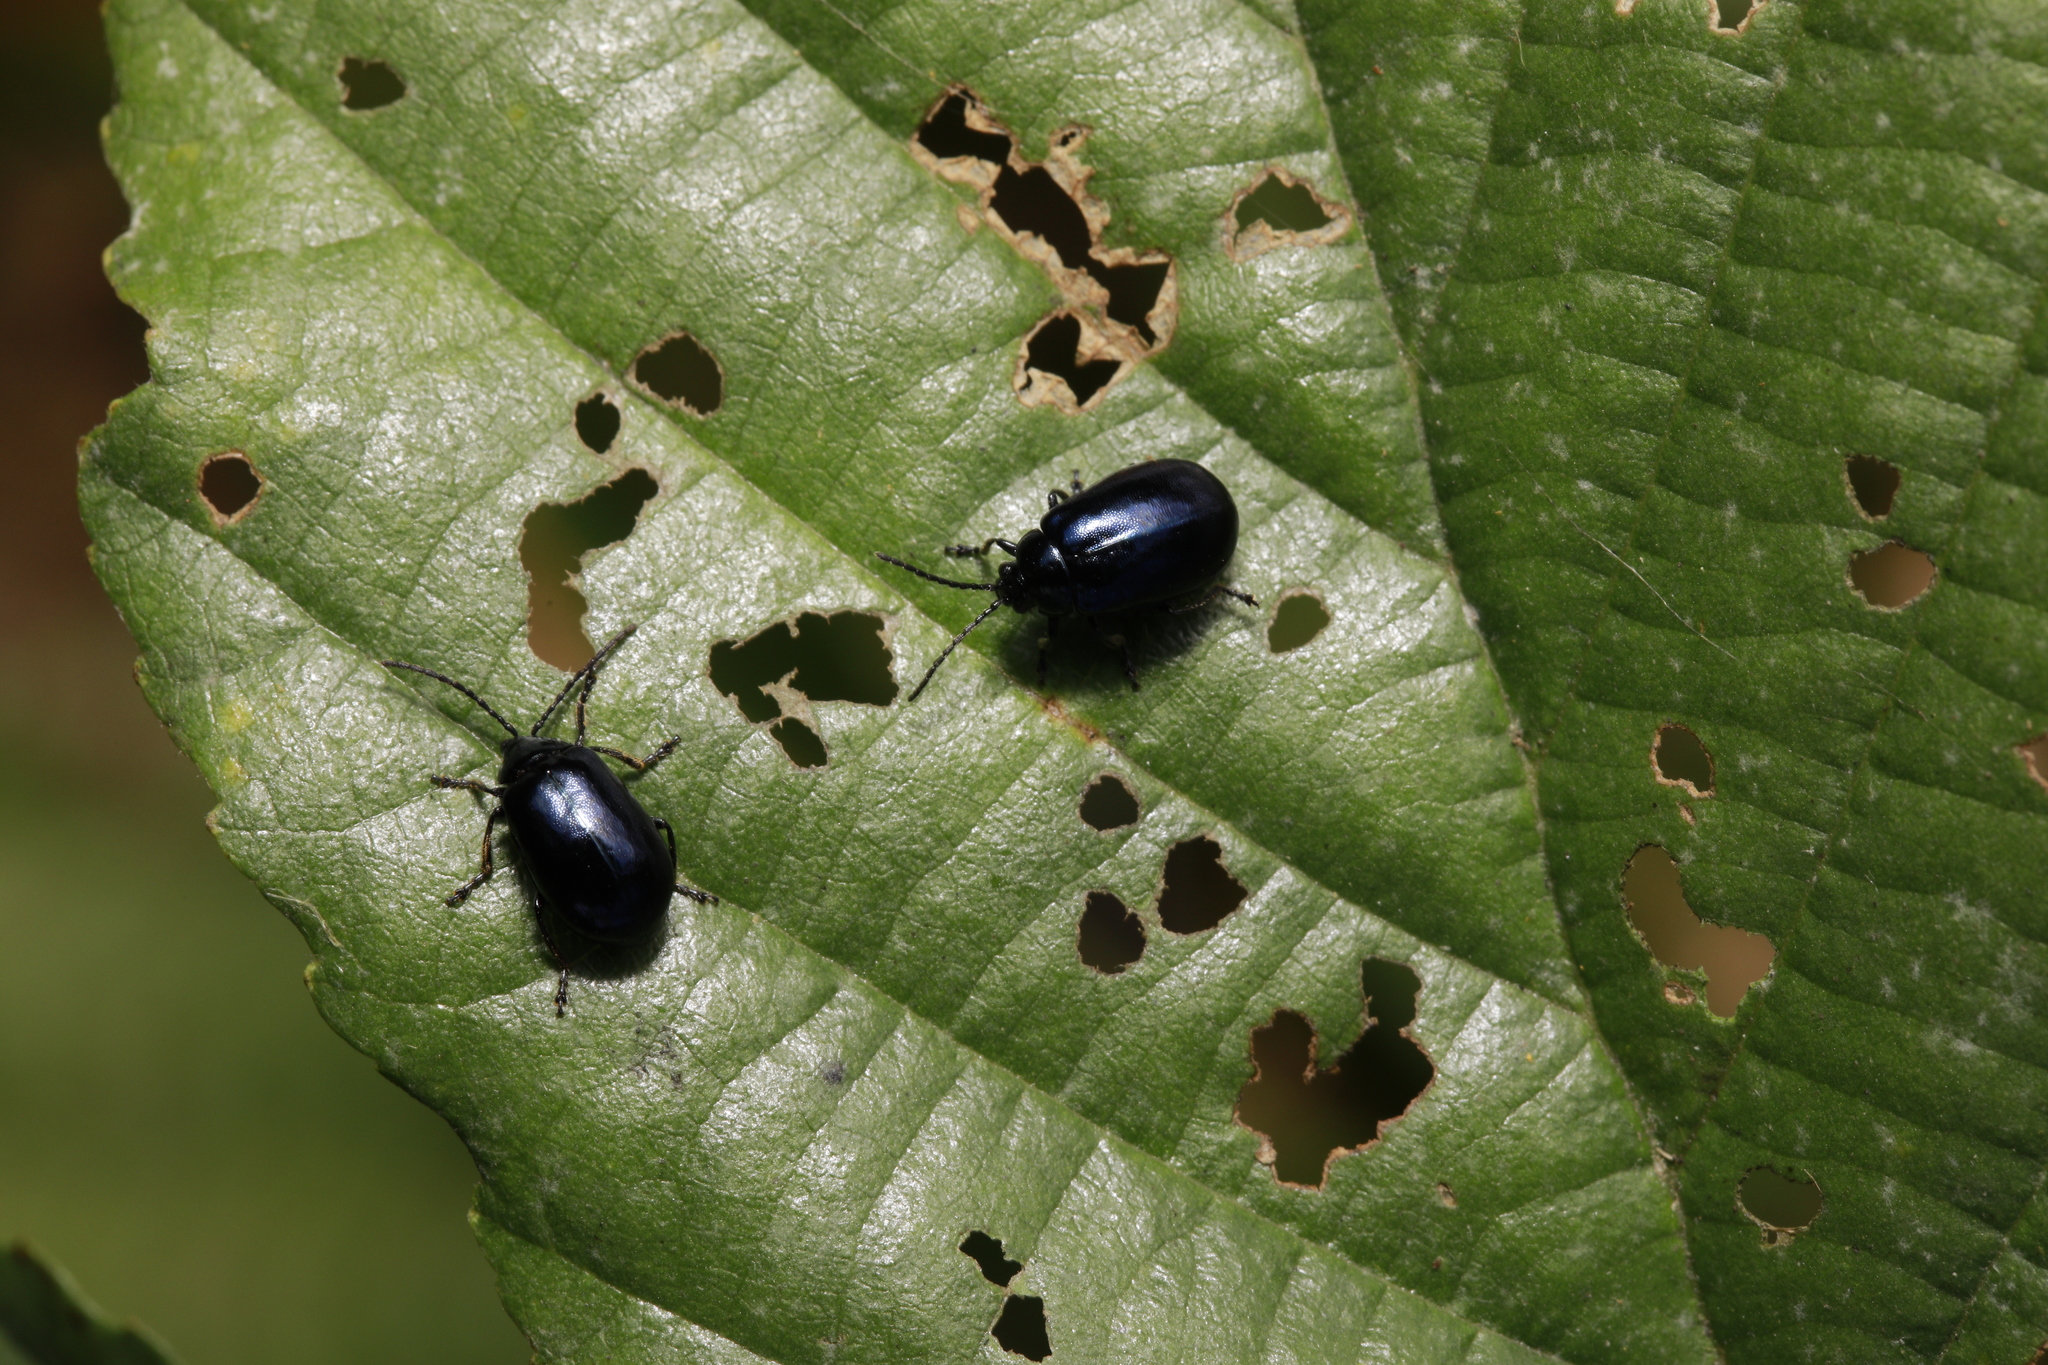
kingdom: Animalia
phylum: Arthropoda
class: Insecta
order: Coleoptera
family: Chrysomelidae
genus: Agelastica
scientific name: Agelastica alni
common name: Alder leaf beetle
